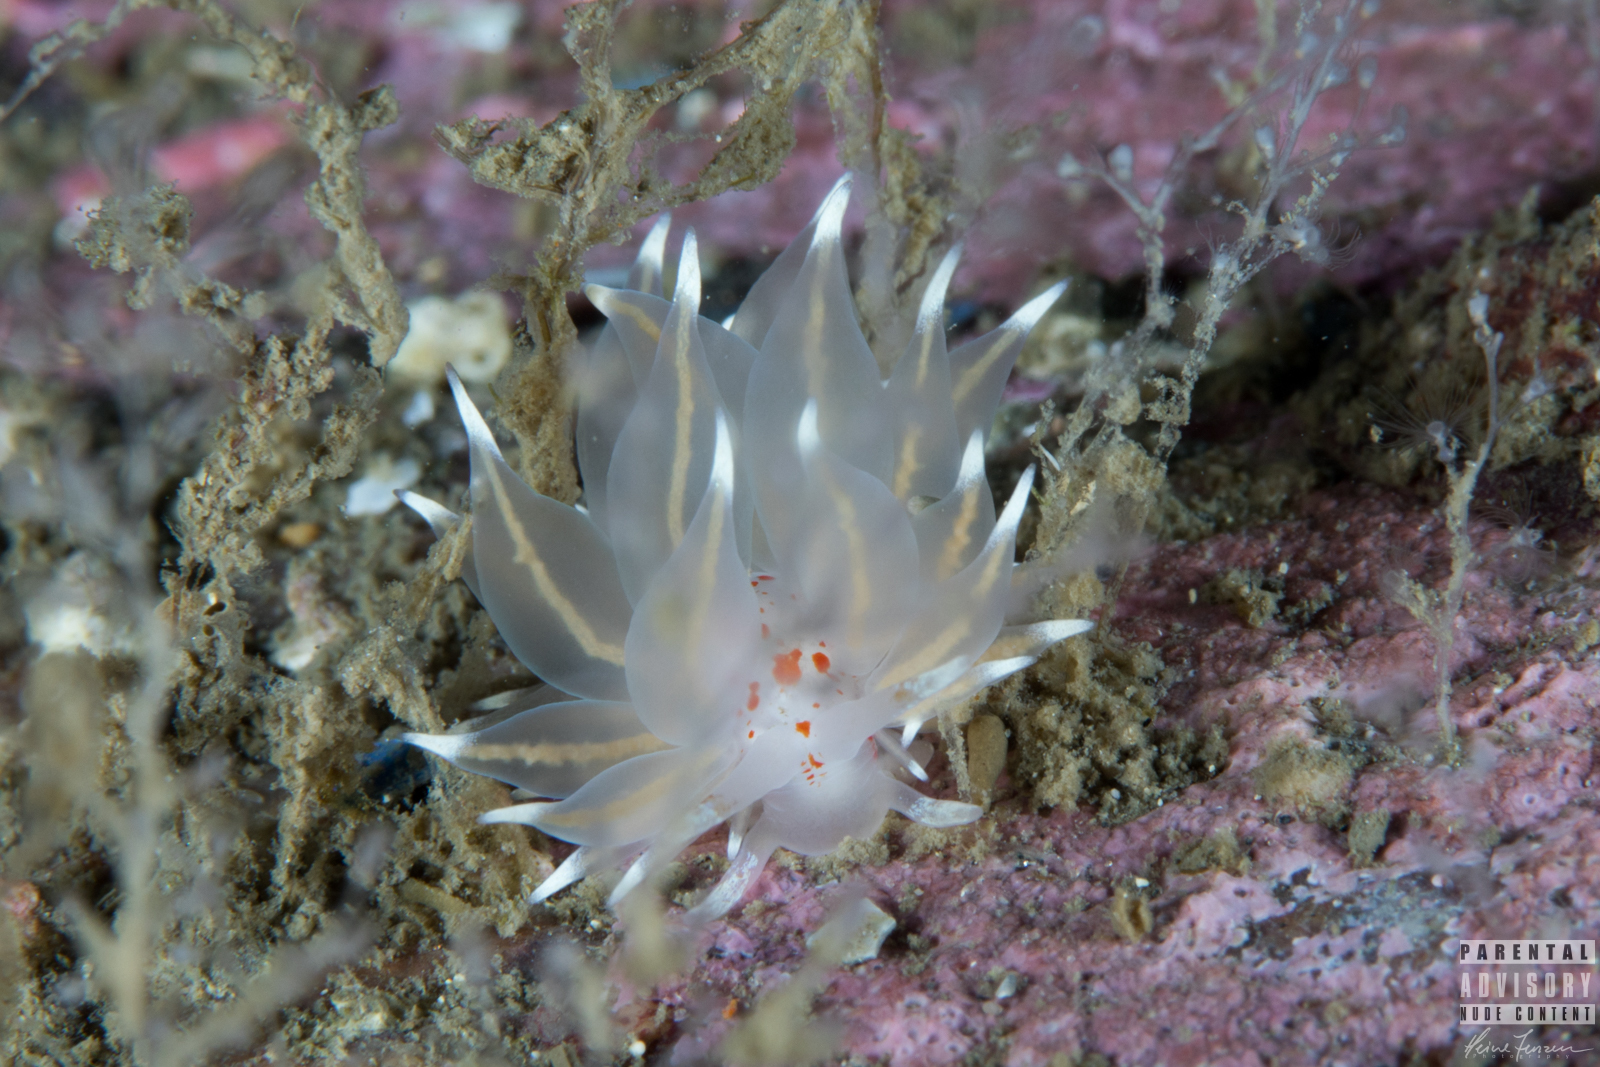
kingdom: Animalia
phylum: Mollusca
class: Gastropoda
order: Nudibranchia
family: Eubranchidae
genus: Amphorina
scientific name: Amphorina linensis
